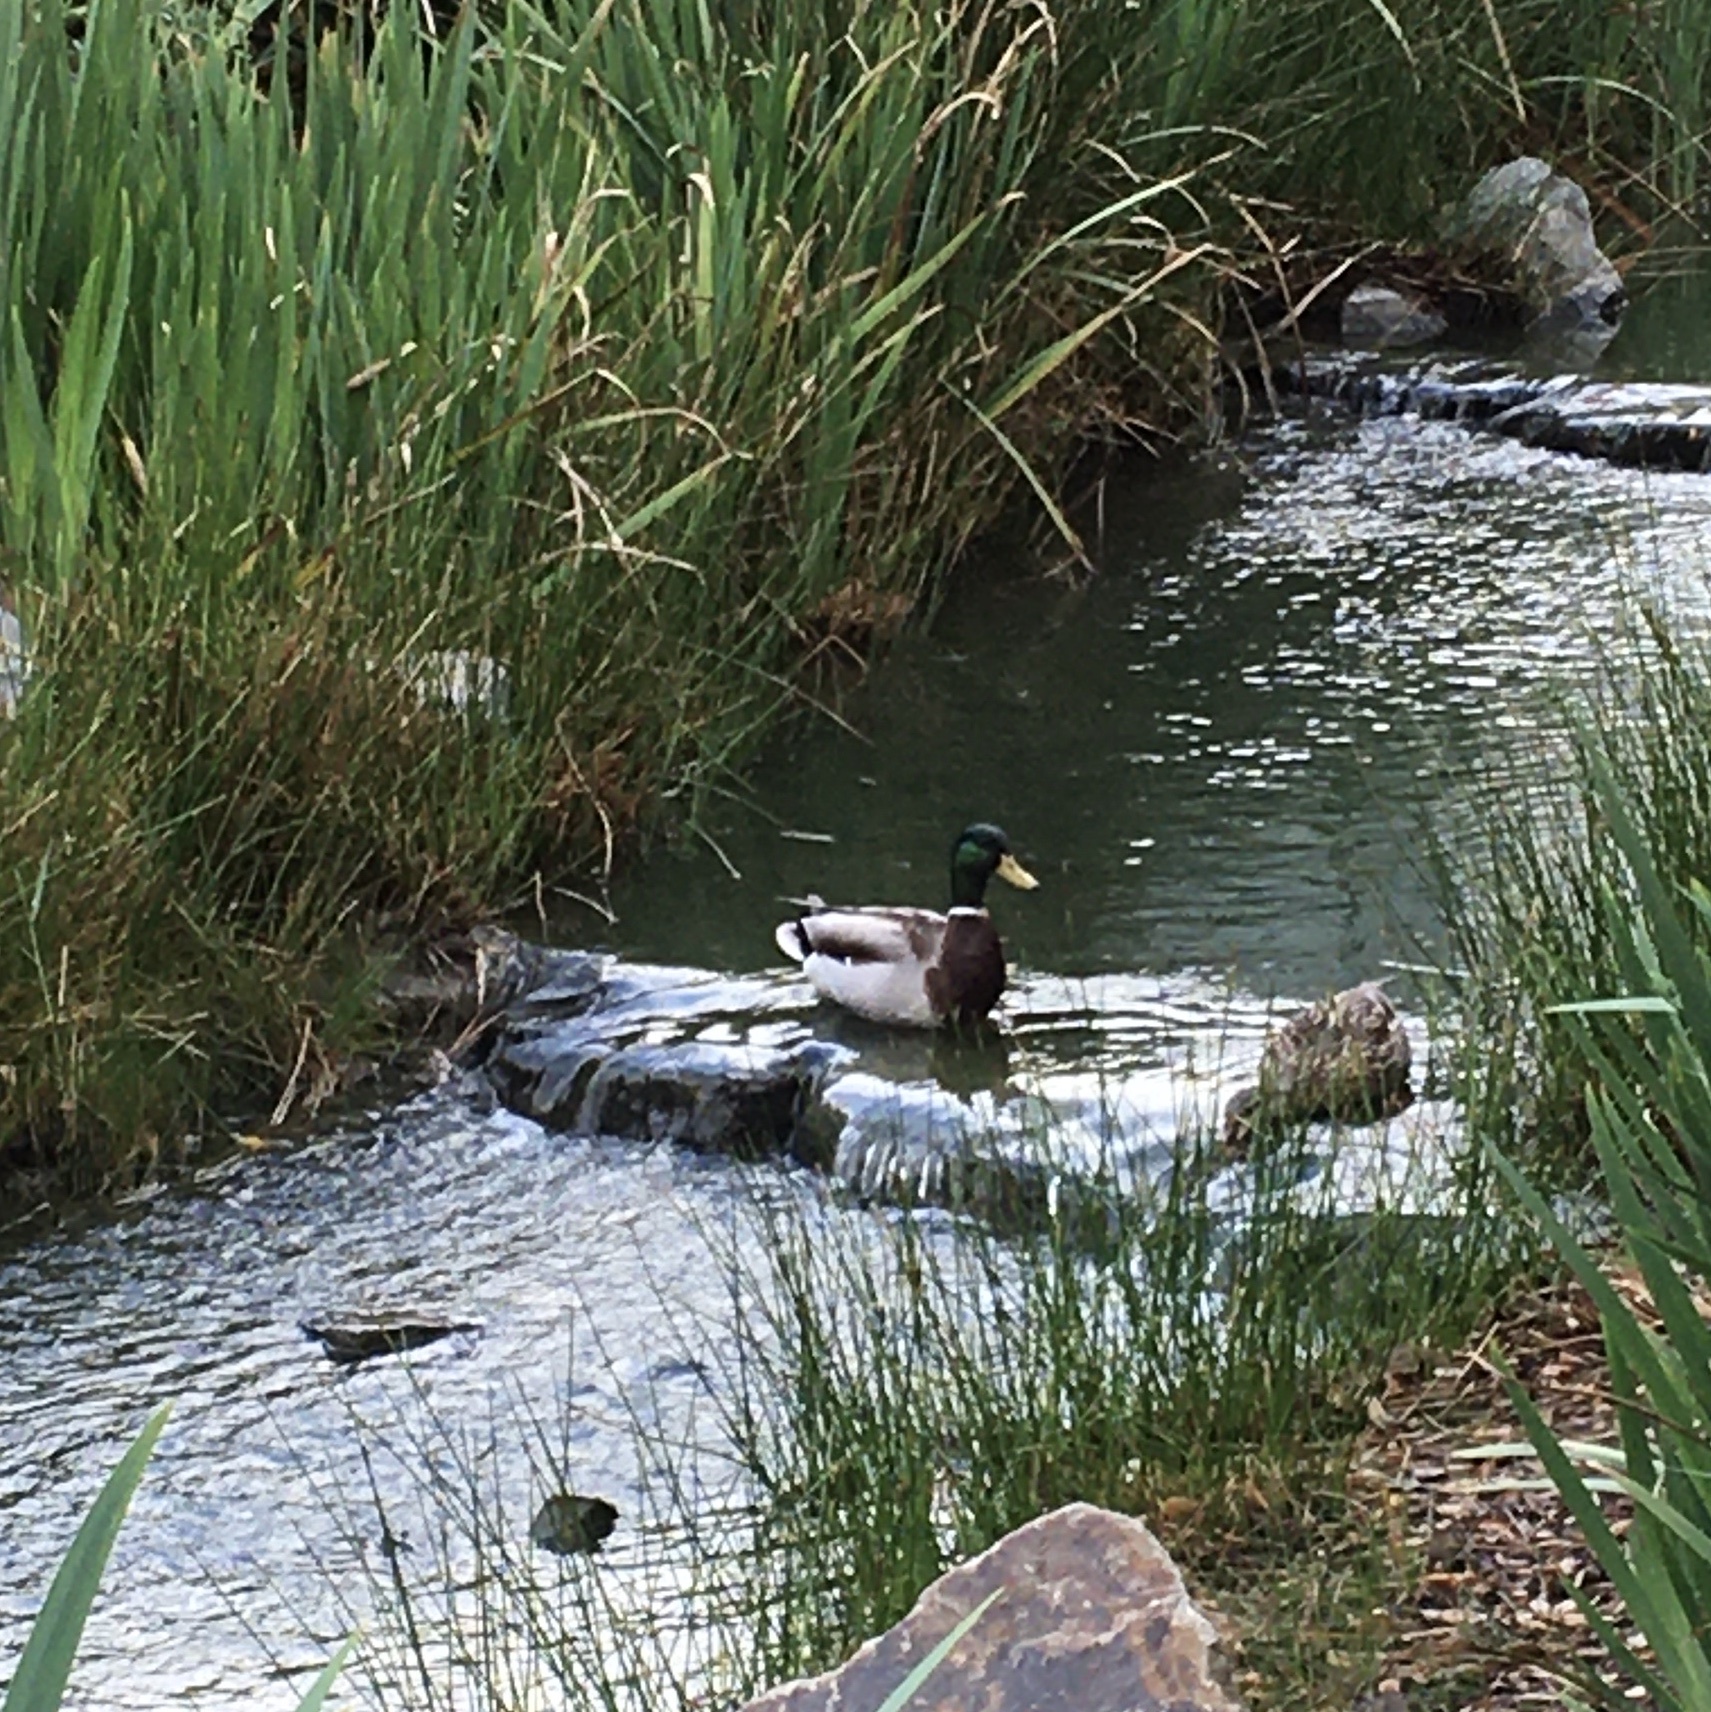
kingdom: Animalia
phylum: Chordata
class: Aves
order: Anseriformes
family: Anatidae
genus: Anas
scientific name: Anas platyrhynchos
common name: Mallard
